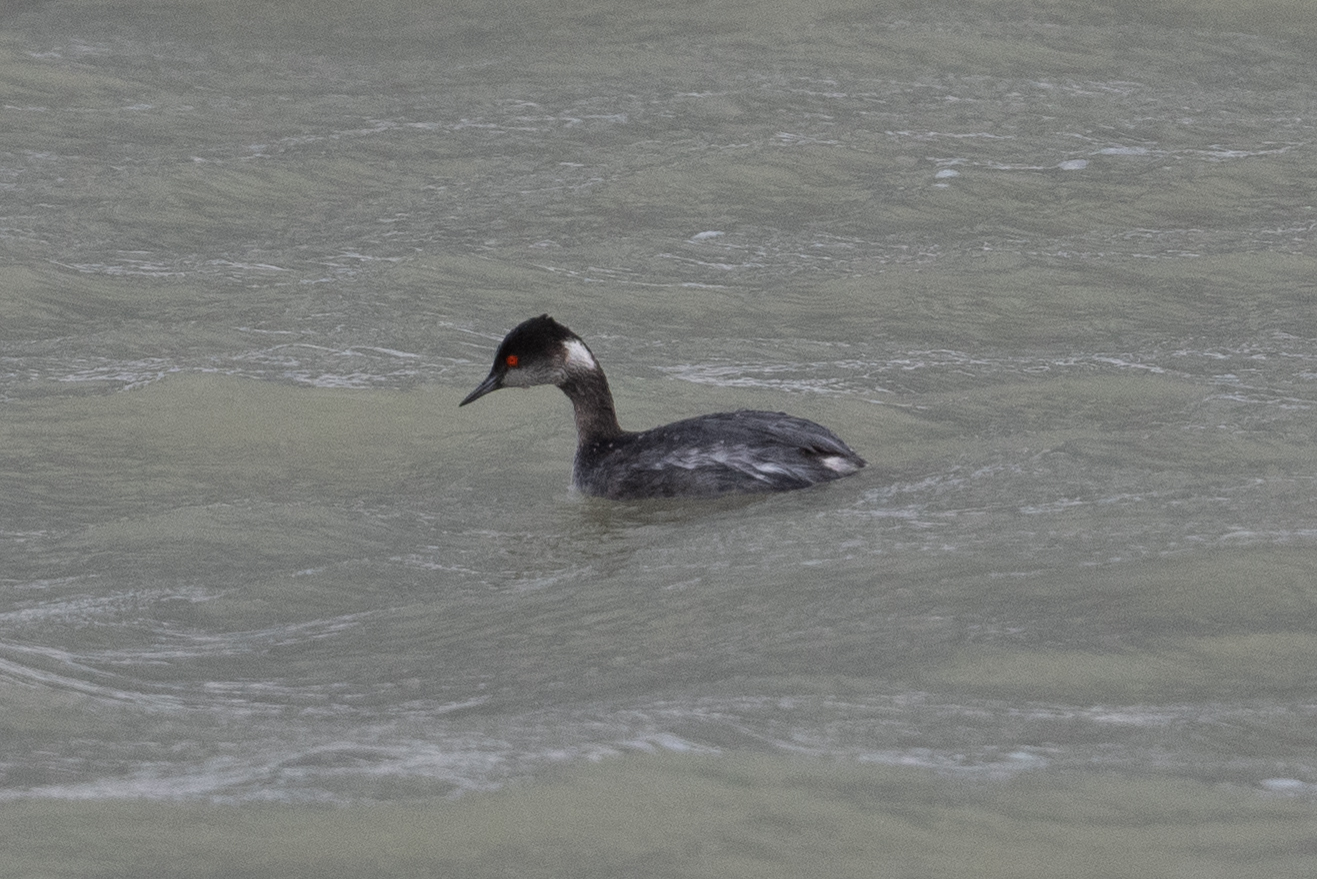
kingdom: Animalia
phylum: Chordata
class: Aves
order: Podicipediformes
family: Podicipedidae
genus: Podiceps
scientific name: Podiceps nigricollis
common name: Black-necked grebe
